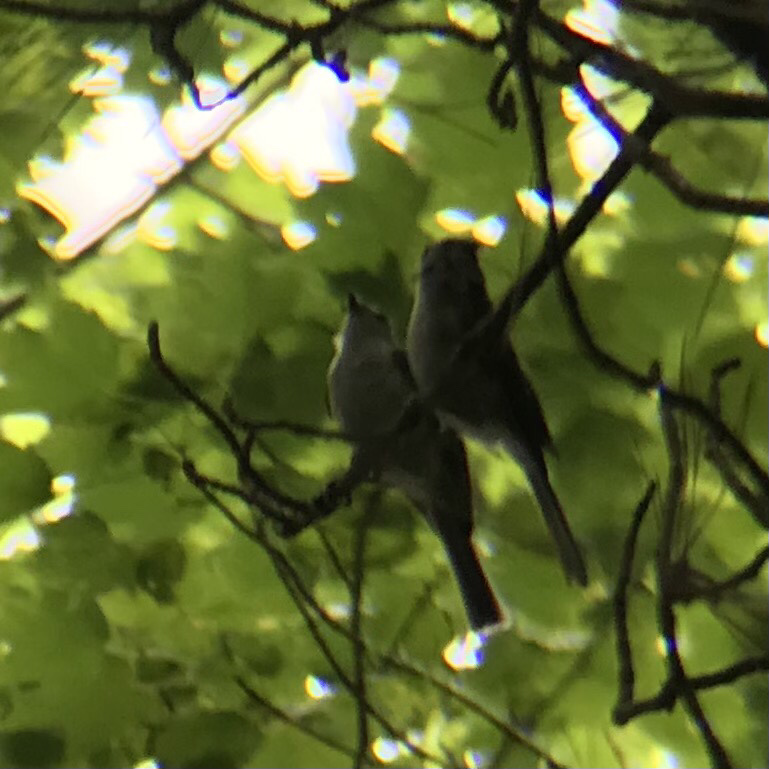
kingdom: Animalia
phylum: Chordata
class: Aves
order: Passeriformes
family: Paridae
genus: Baeolophus
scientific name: Baeolophus bicolor
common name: Tufted titmouse
